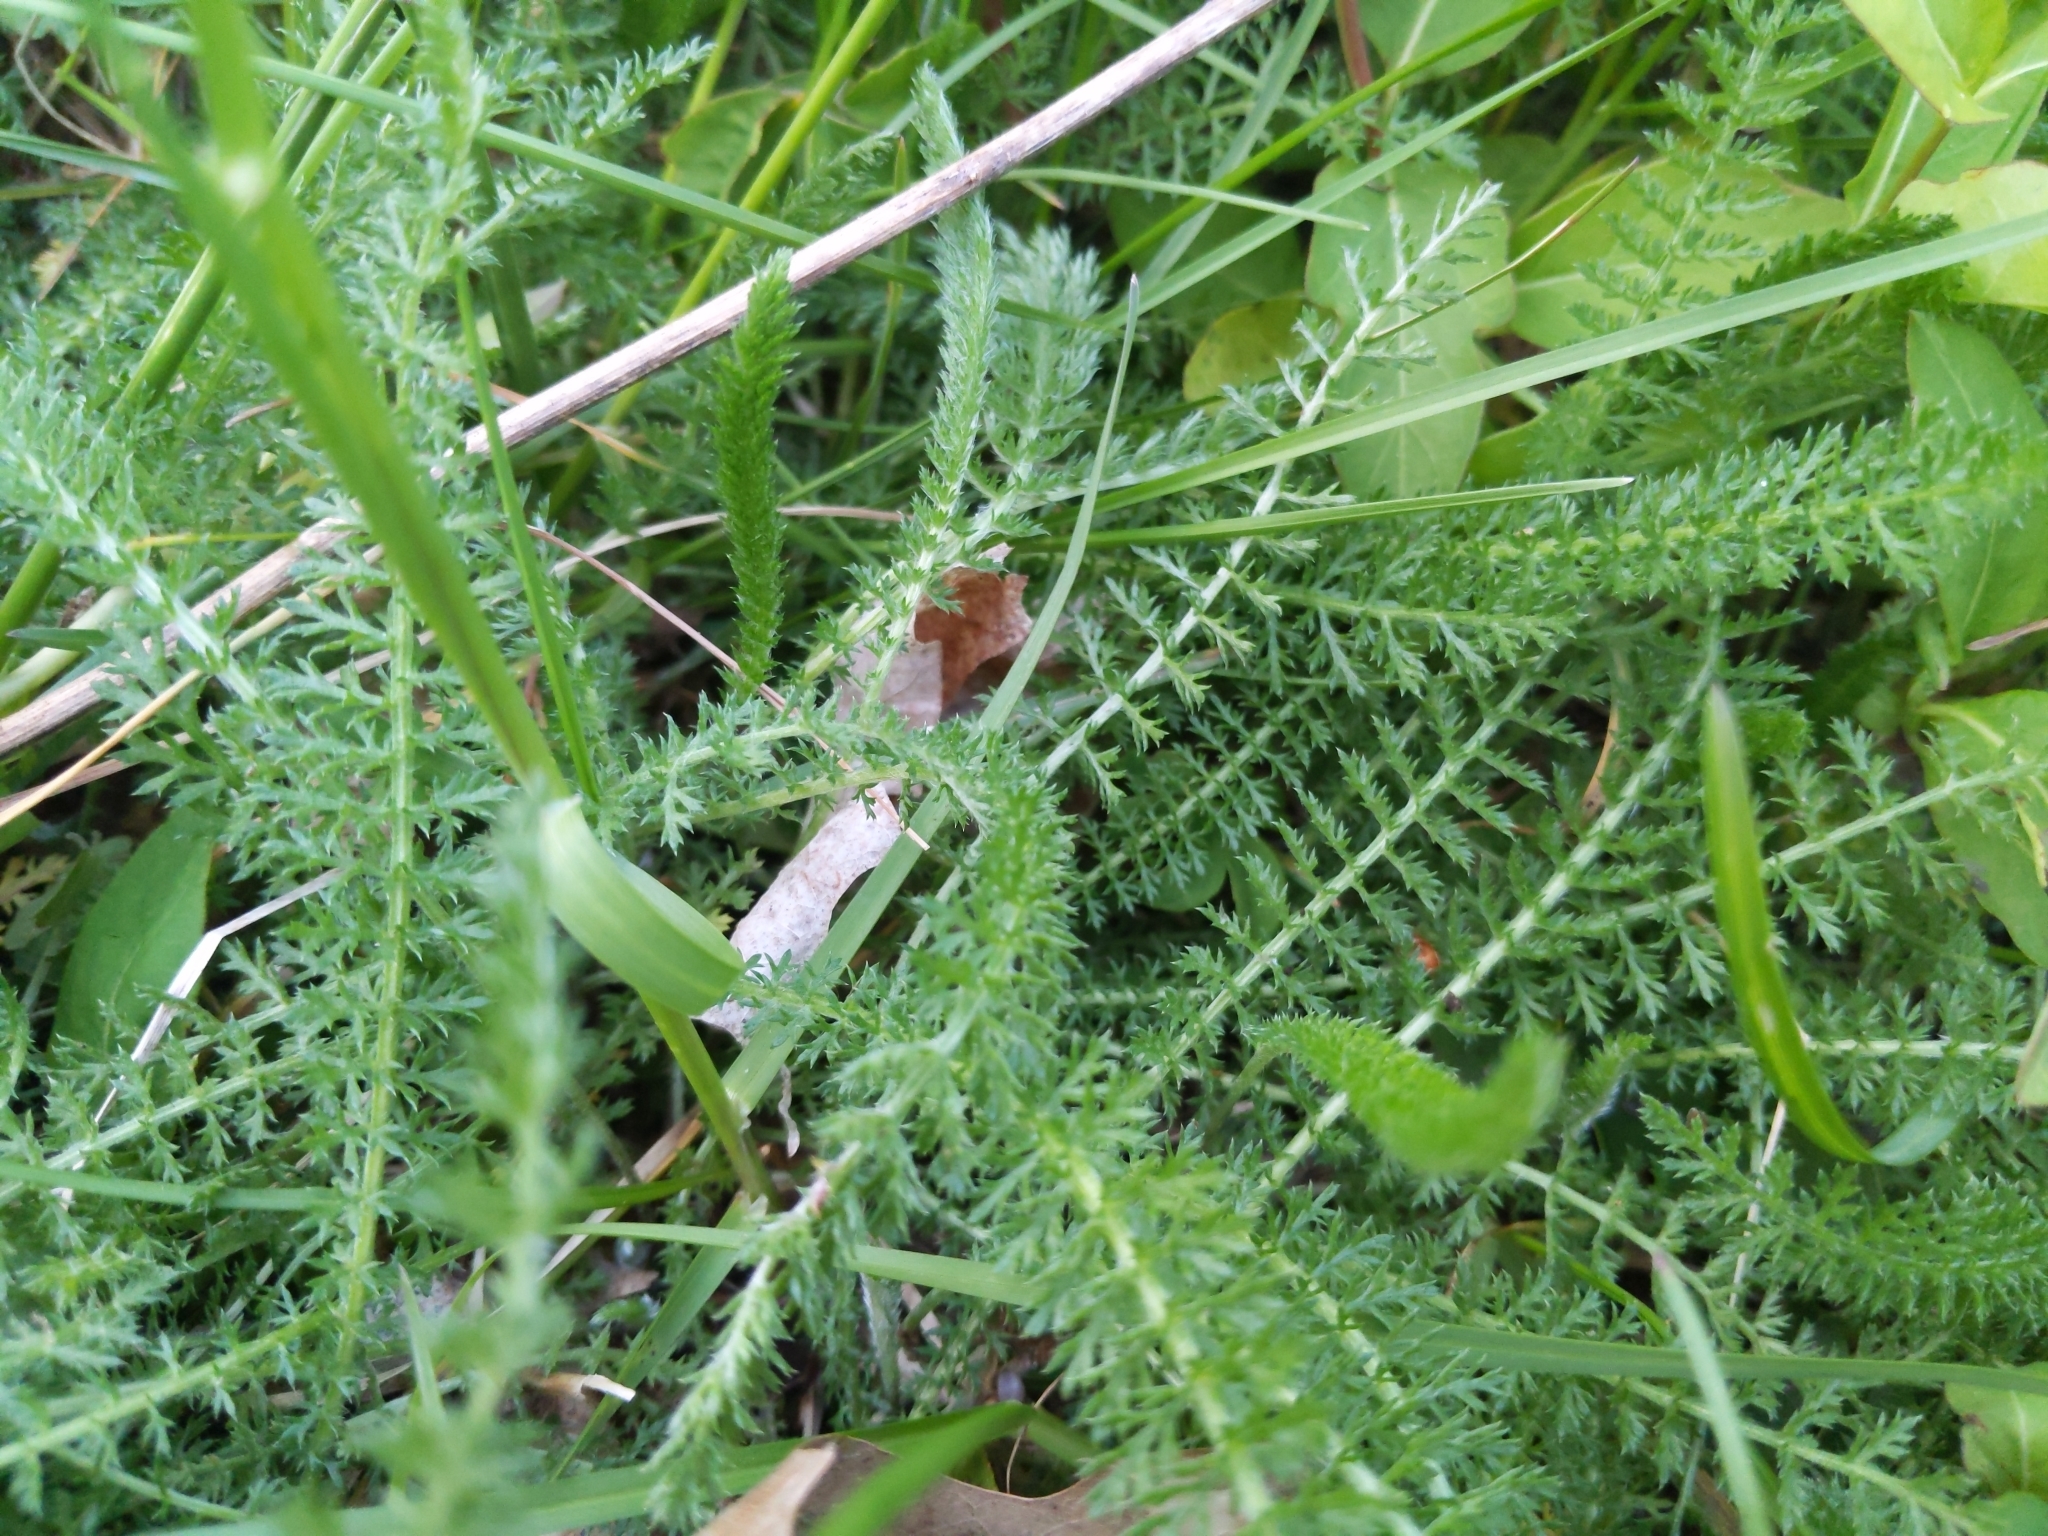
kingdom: Plantae
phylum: Tracheophyta
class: Magnoliopsida
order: Asterales
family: Asteraceae
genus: Achillea
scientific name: Achillea millefolium
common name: Yarrow
